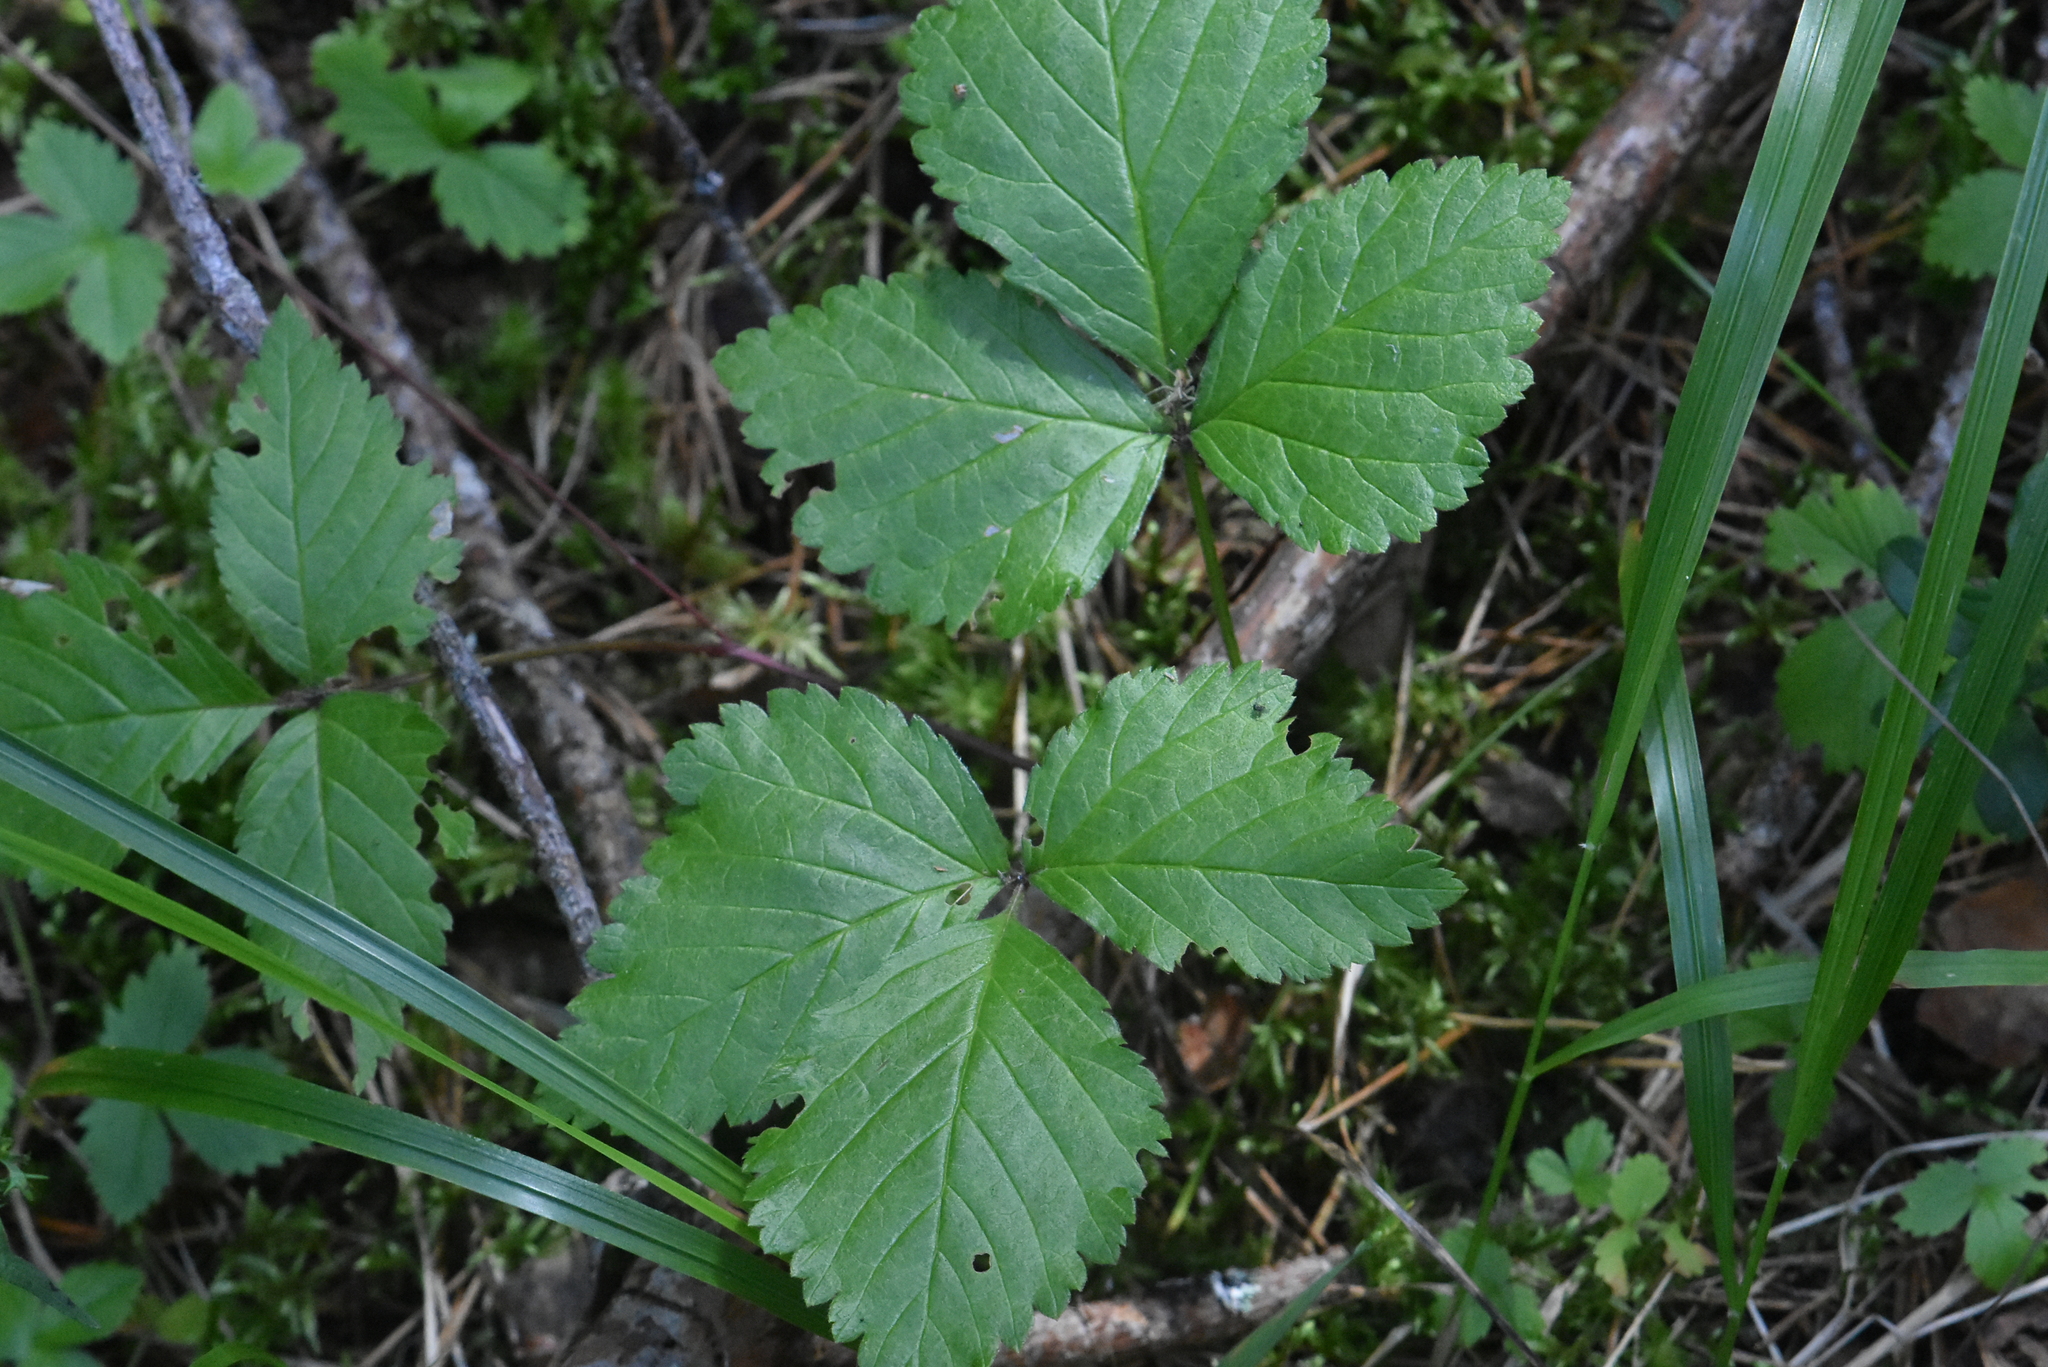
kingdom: Plantae
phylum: Tracheophyta
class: Magnoliopsida
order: Rosales
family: Rosaceae
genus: Rubus
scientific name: Rubus saxatilis
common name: Stone bramble
